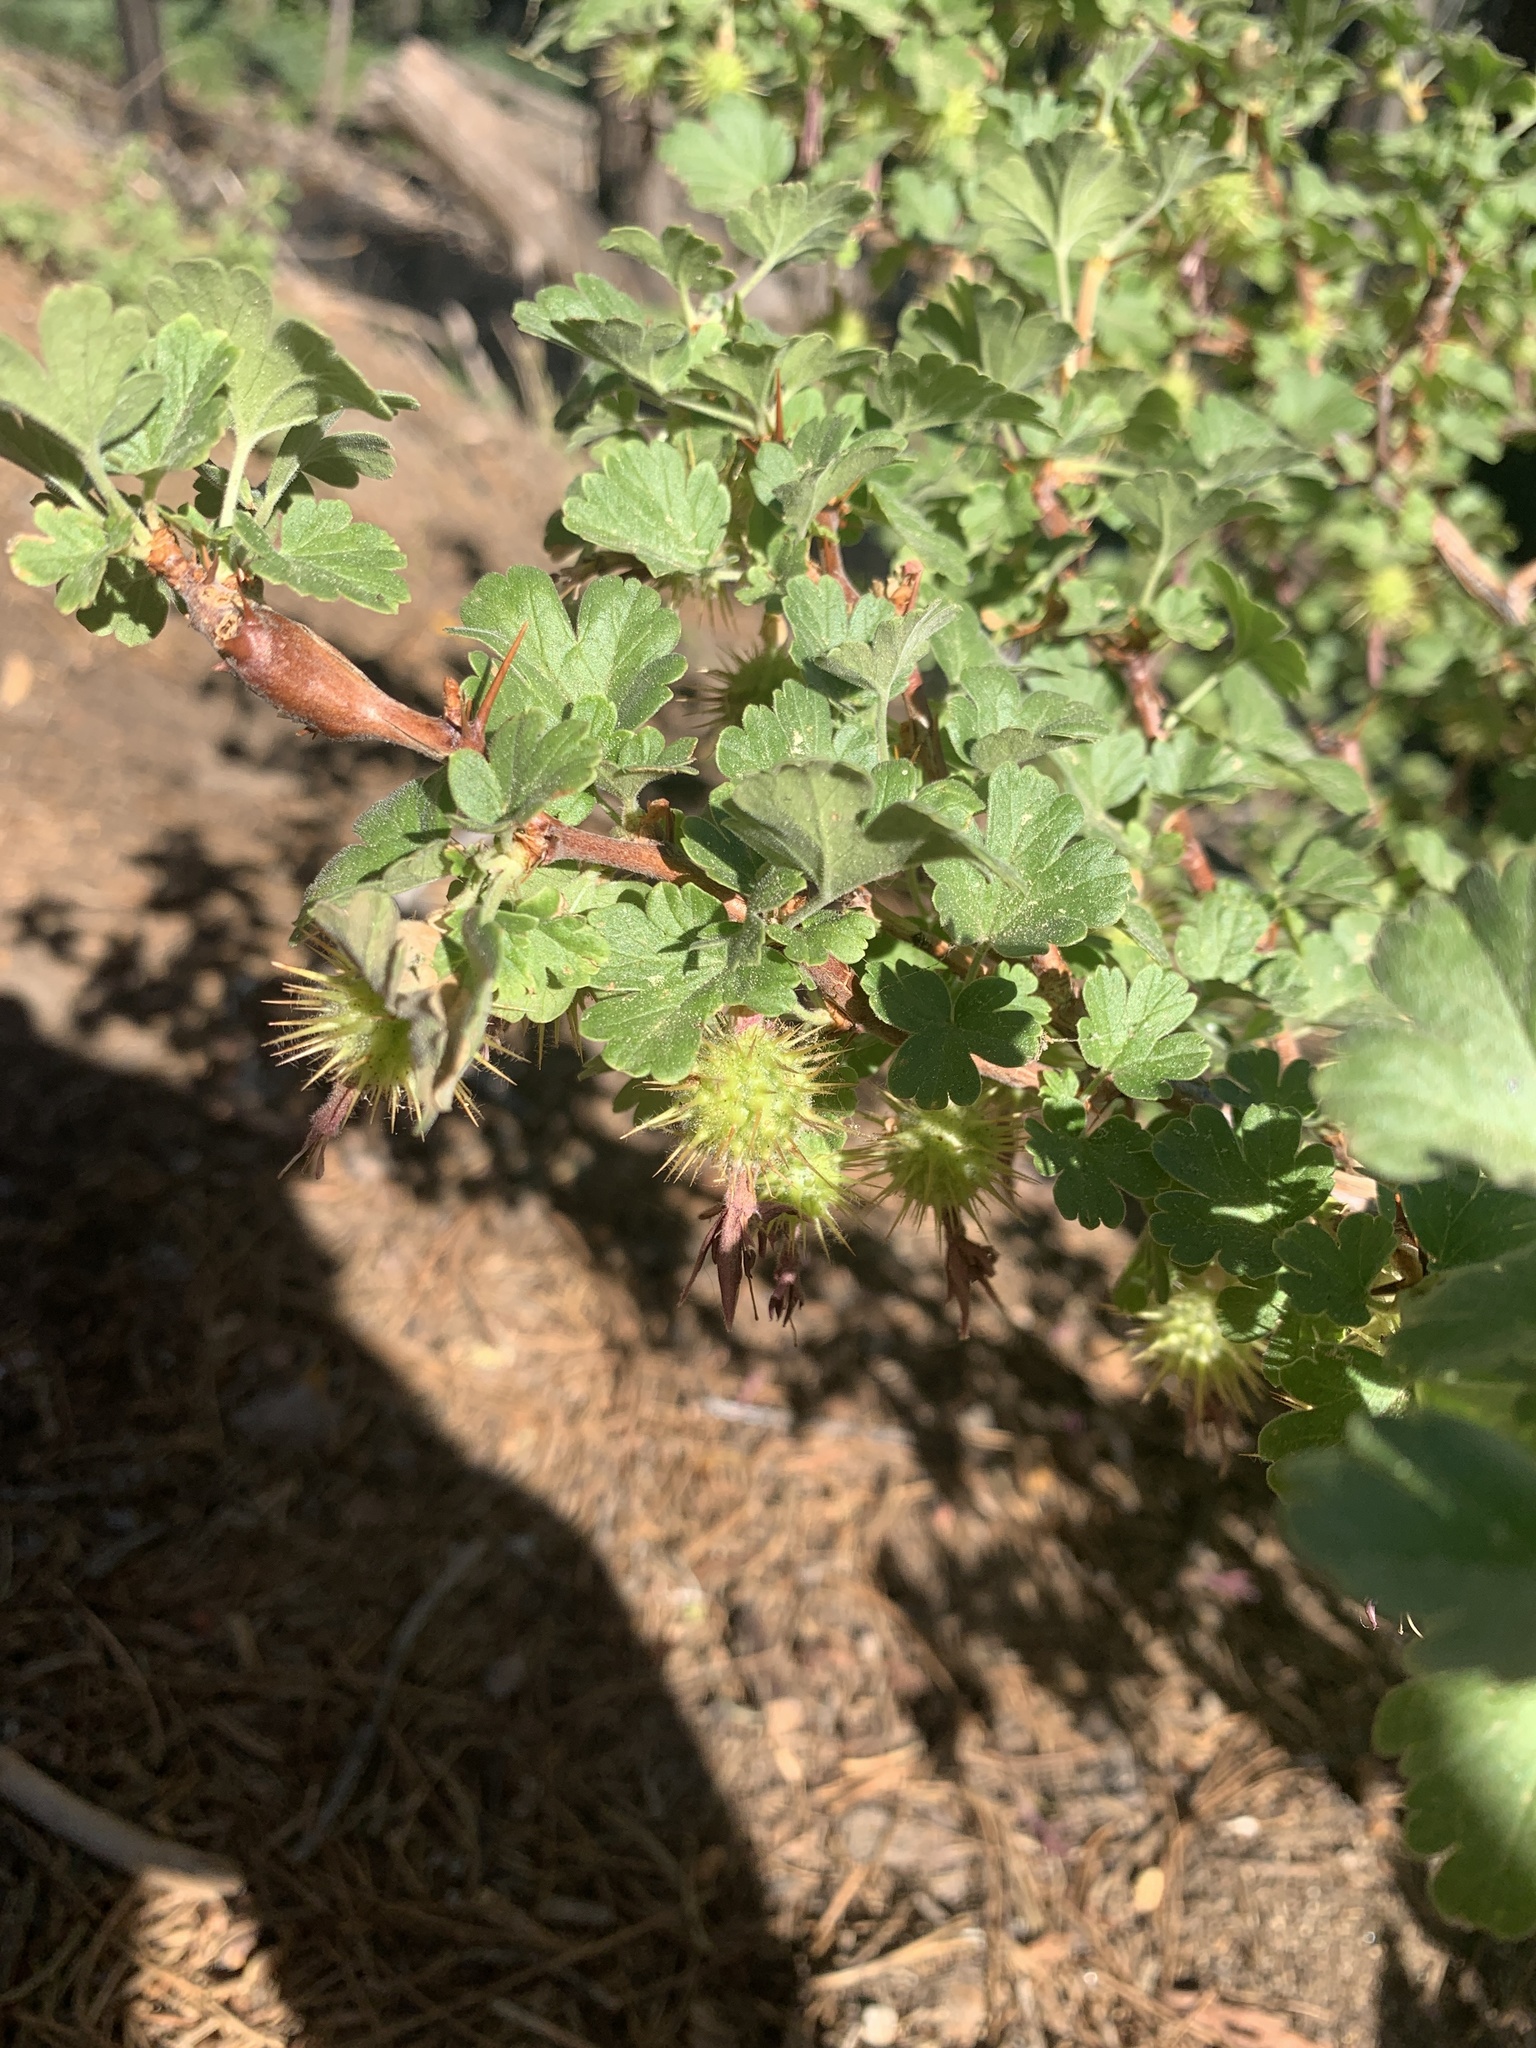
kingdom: Plantae
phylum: Tracheophyta
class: Magnoliopsida
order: Saxifragales
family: Grossulariaceae
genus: Ribes
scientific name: Ribes roezlii
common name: Sierra gooseberry
